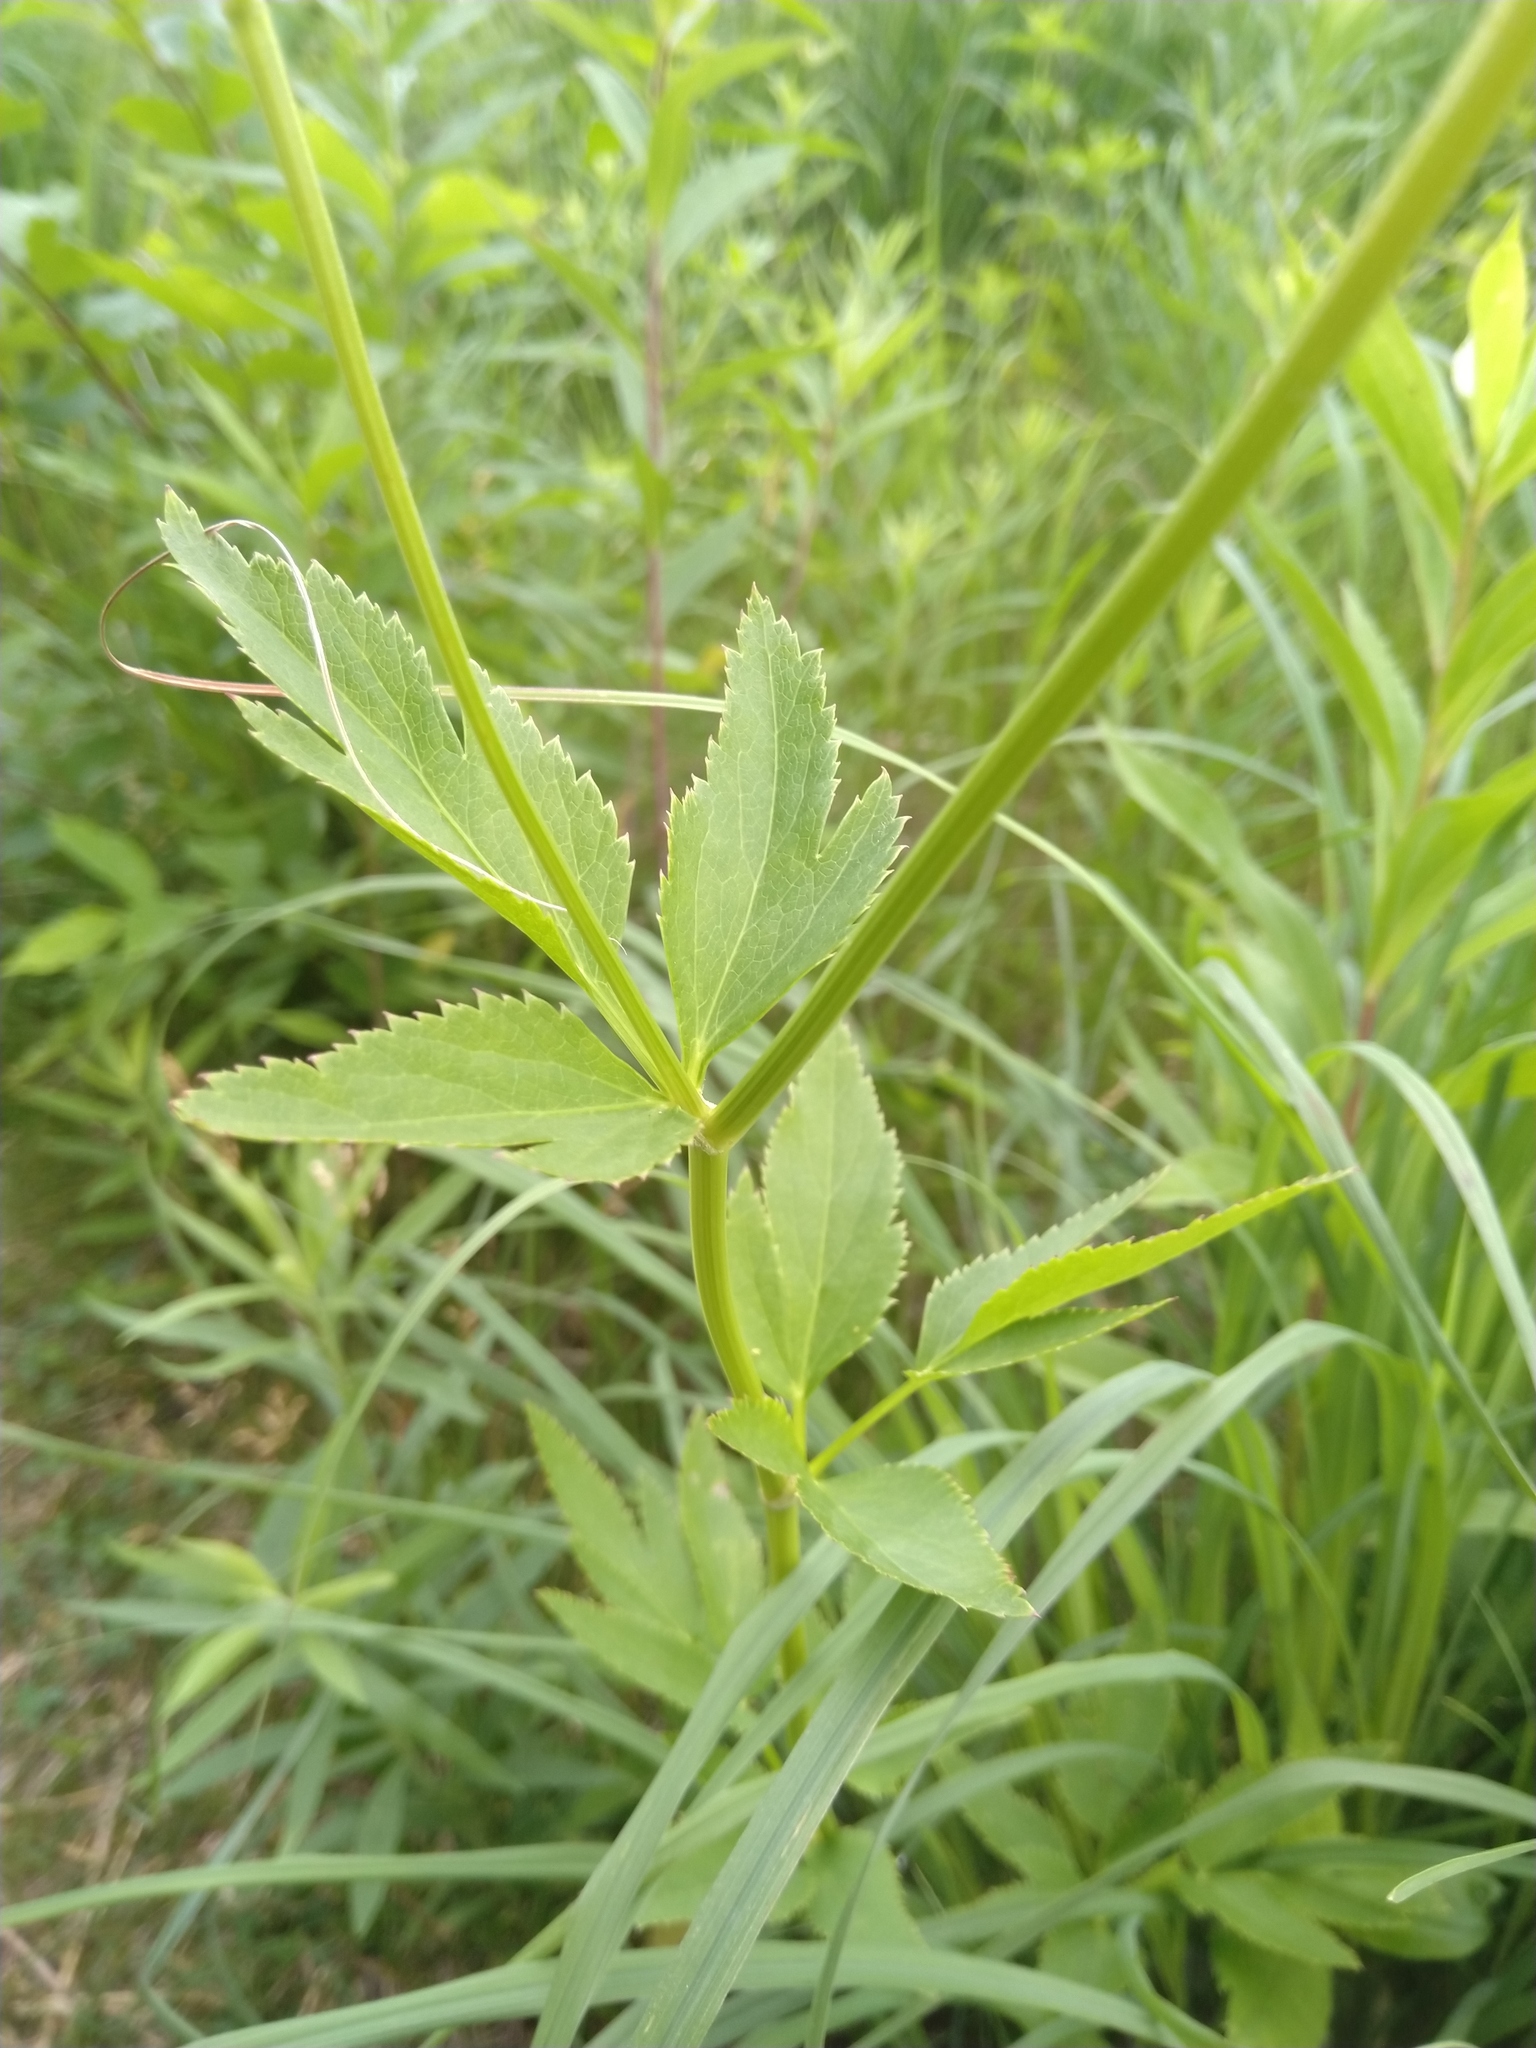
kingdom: Plantae
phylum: Tracheophyta
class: Magnoliopsida
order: Apiales
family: Apiaceae
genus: Zizia
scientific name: Zizia aurea
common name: Golden alexanders
